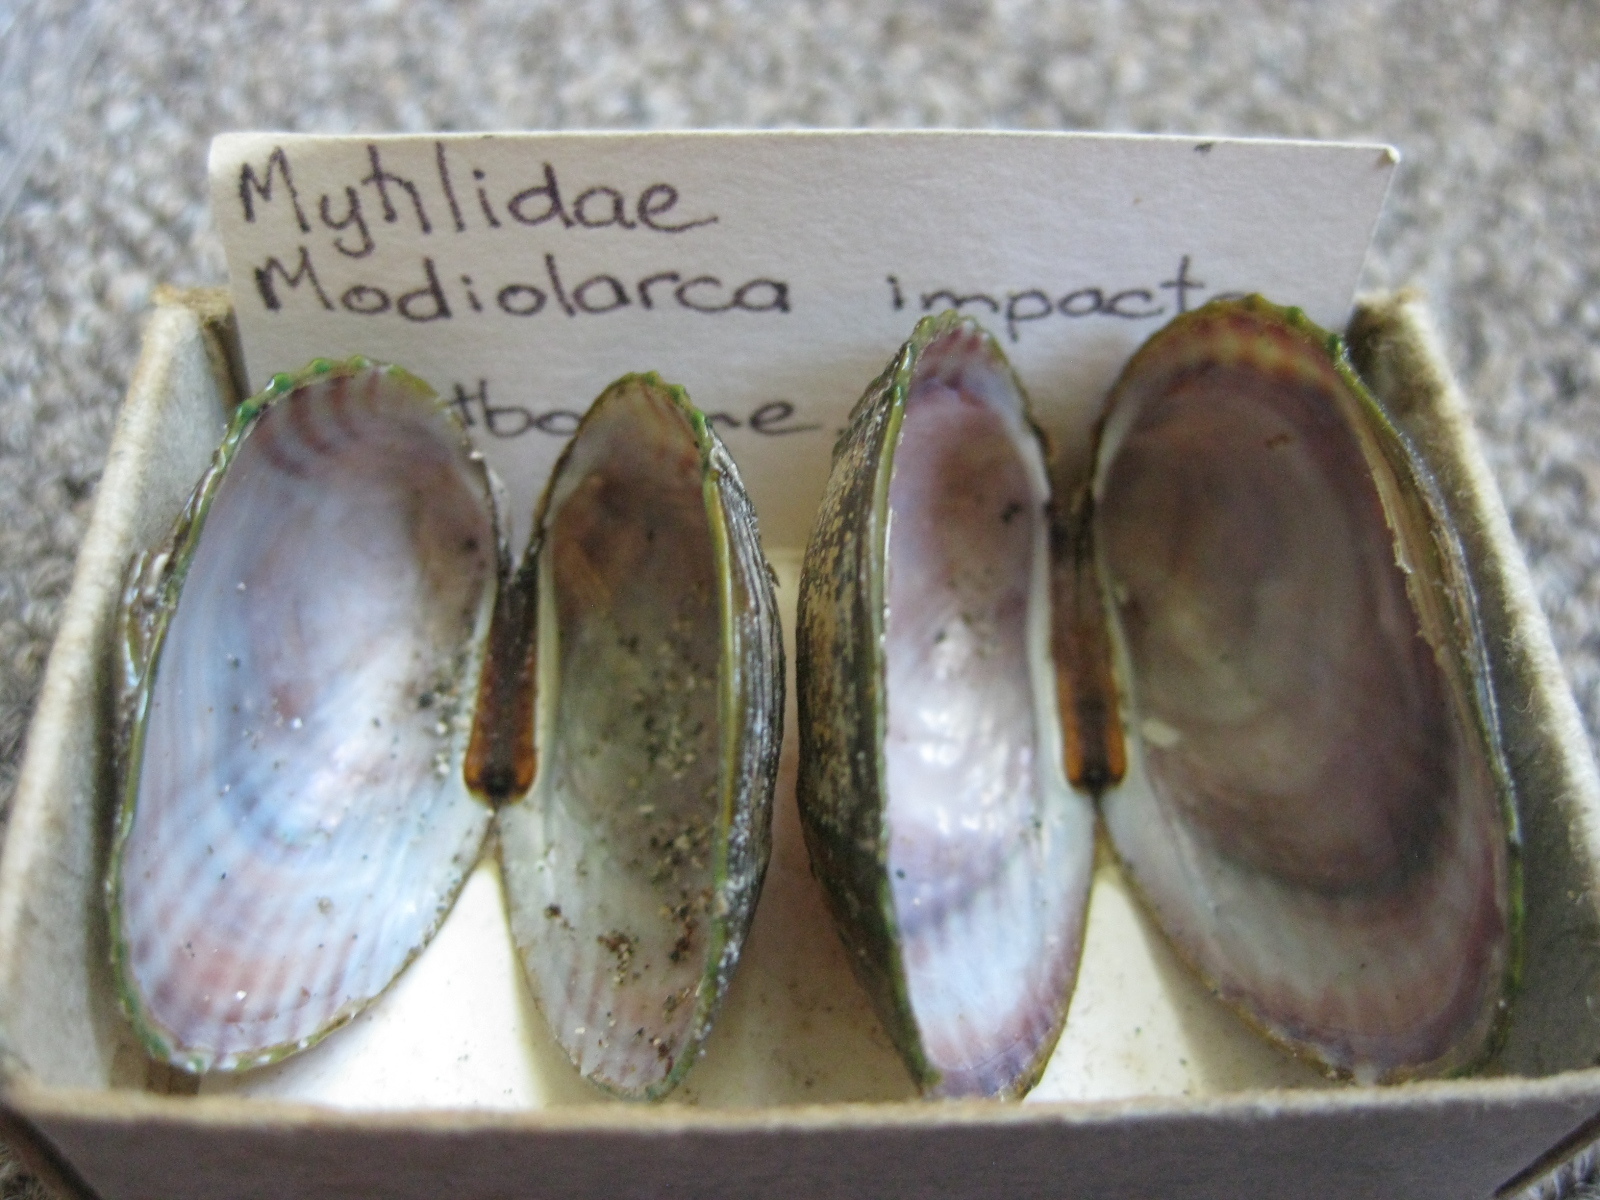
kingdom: Animalia
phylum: Mollusca
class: Bivalvia
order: Mytilida
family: Mytilidae
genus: Musculus
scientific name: Musculus impactus
